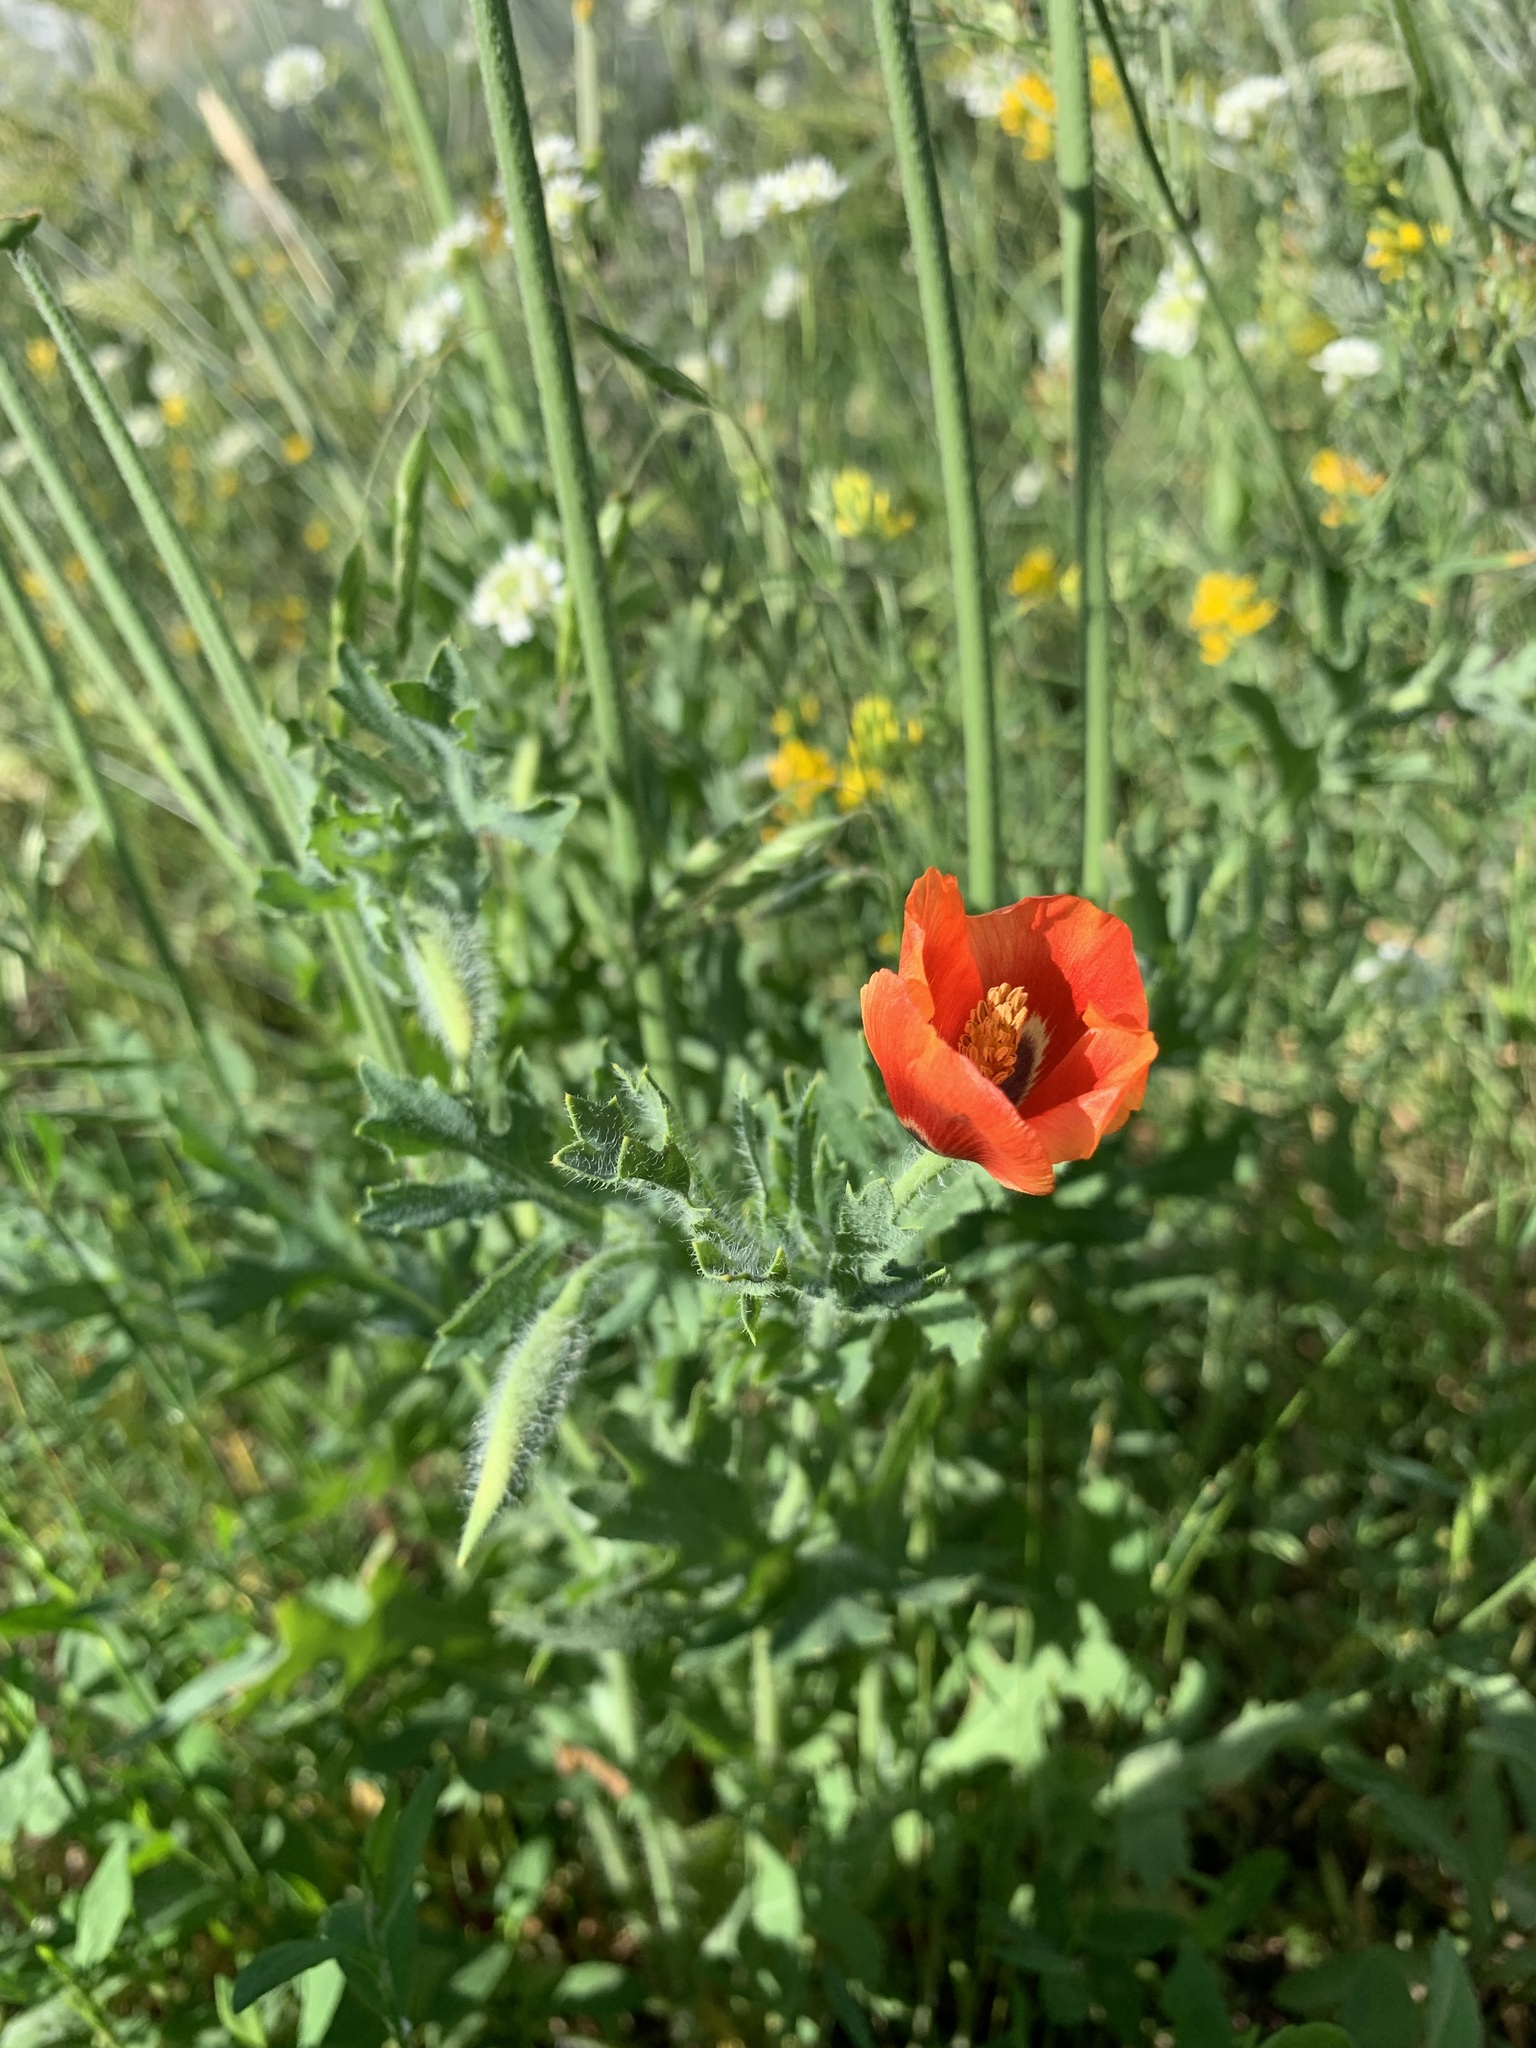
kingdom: Plantae
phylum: Tracheophyta
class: Magnoliopsida
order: Ranunculales
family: Papaveraceae
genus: Glaucium
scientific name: Glaucium corniculatum
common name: Red horned-poppy
